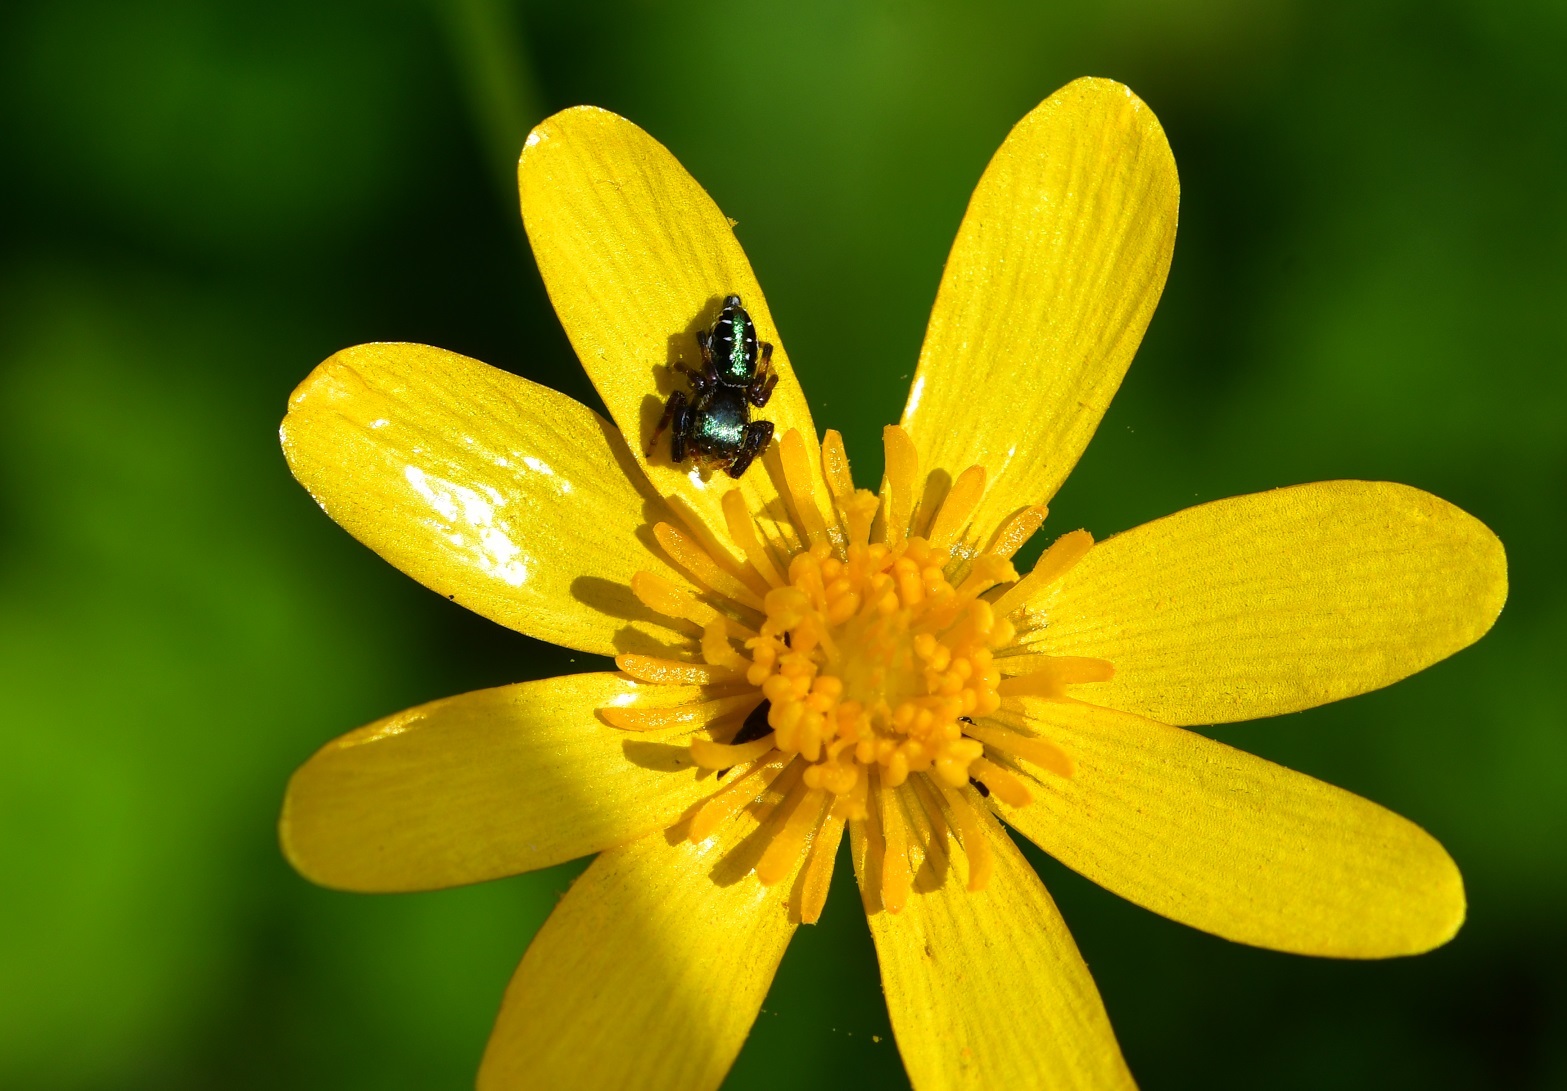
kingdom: Plantae
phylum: Tracheophyta
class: Magnoliopsida
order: Ranunculales
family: Ranunculaceae
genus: Ranunculus
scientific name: Ranunculus petiolaris
